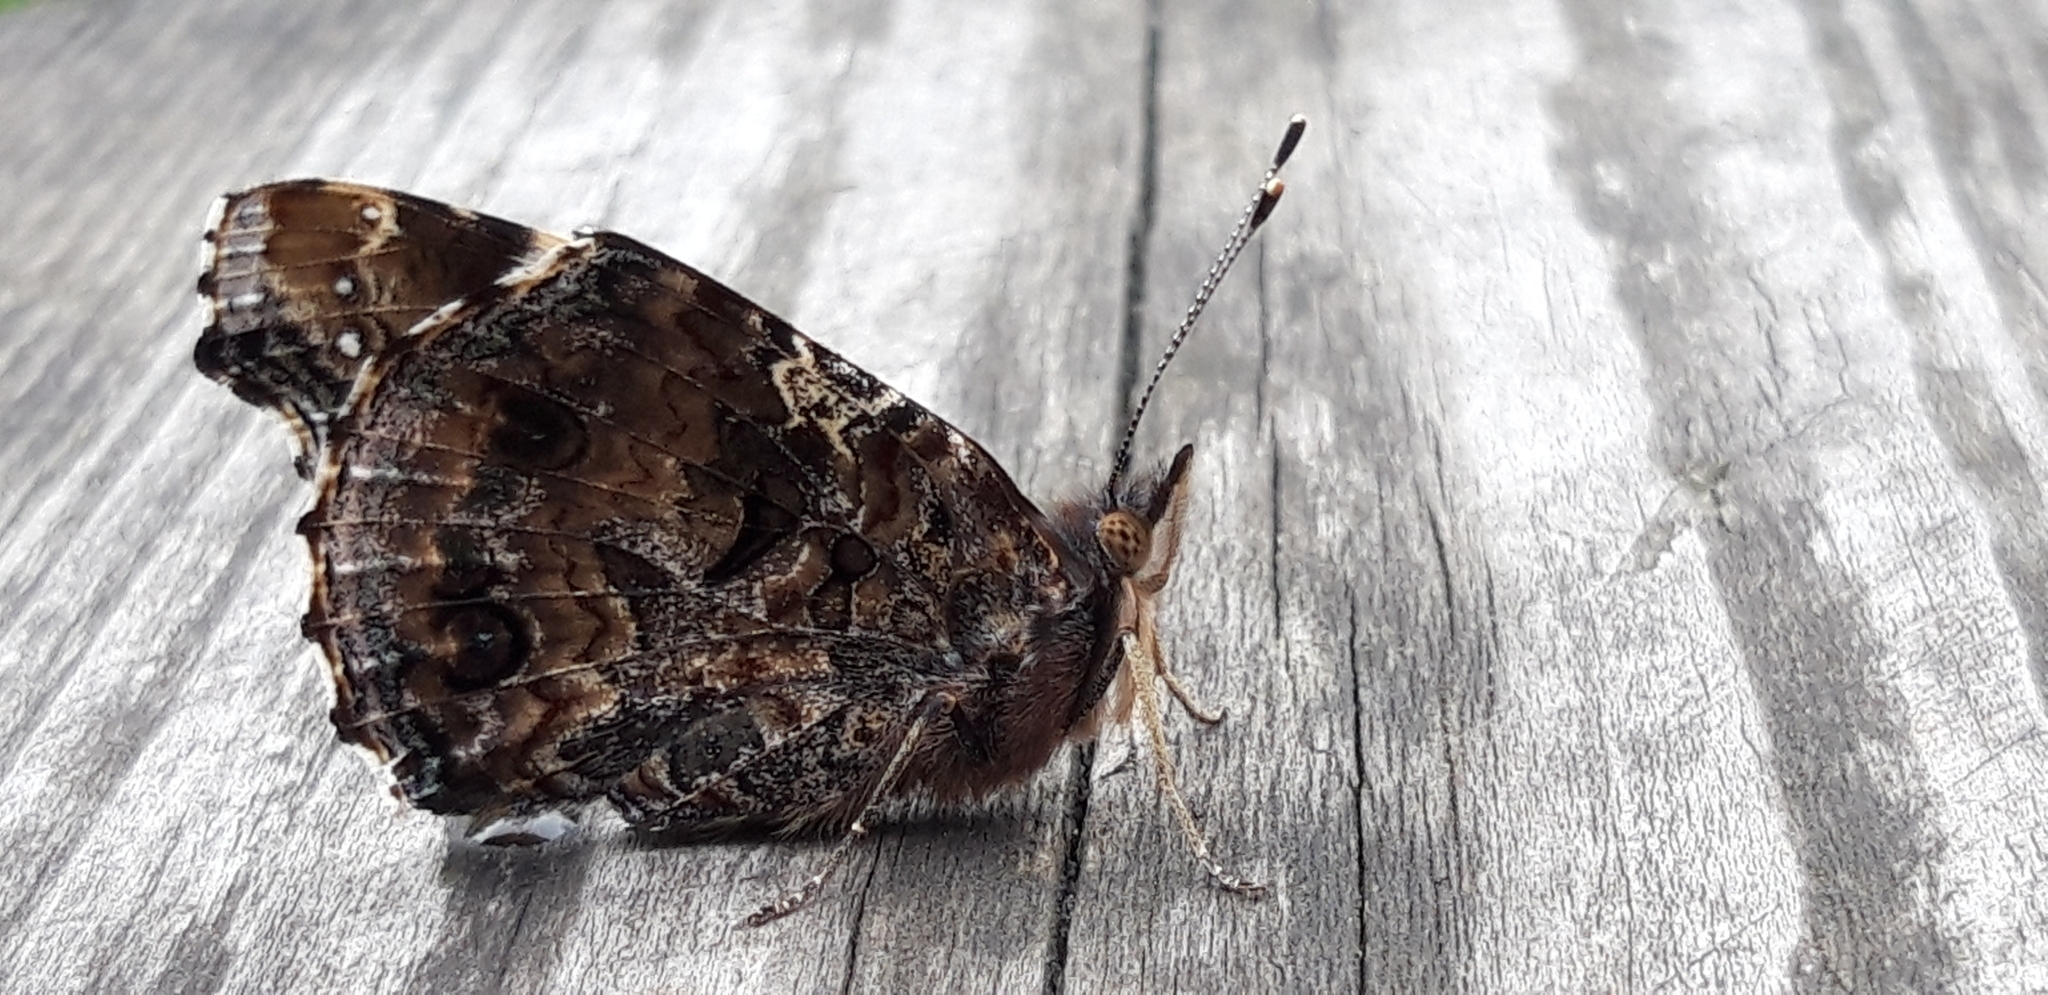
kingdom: Animalia
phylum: Arthropoda
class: Insecta
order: Lepidoptera
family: Nymphalidae
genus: Vanessa
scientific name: Vanessa atalanta
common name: Red admiral
